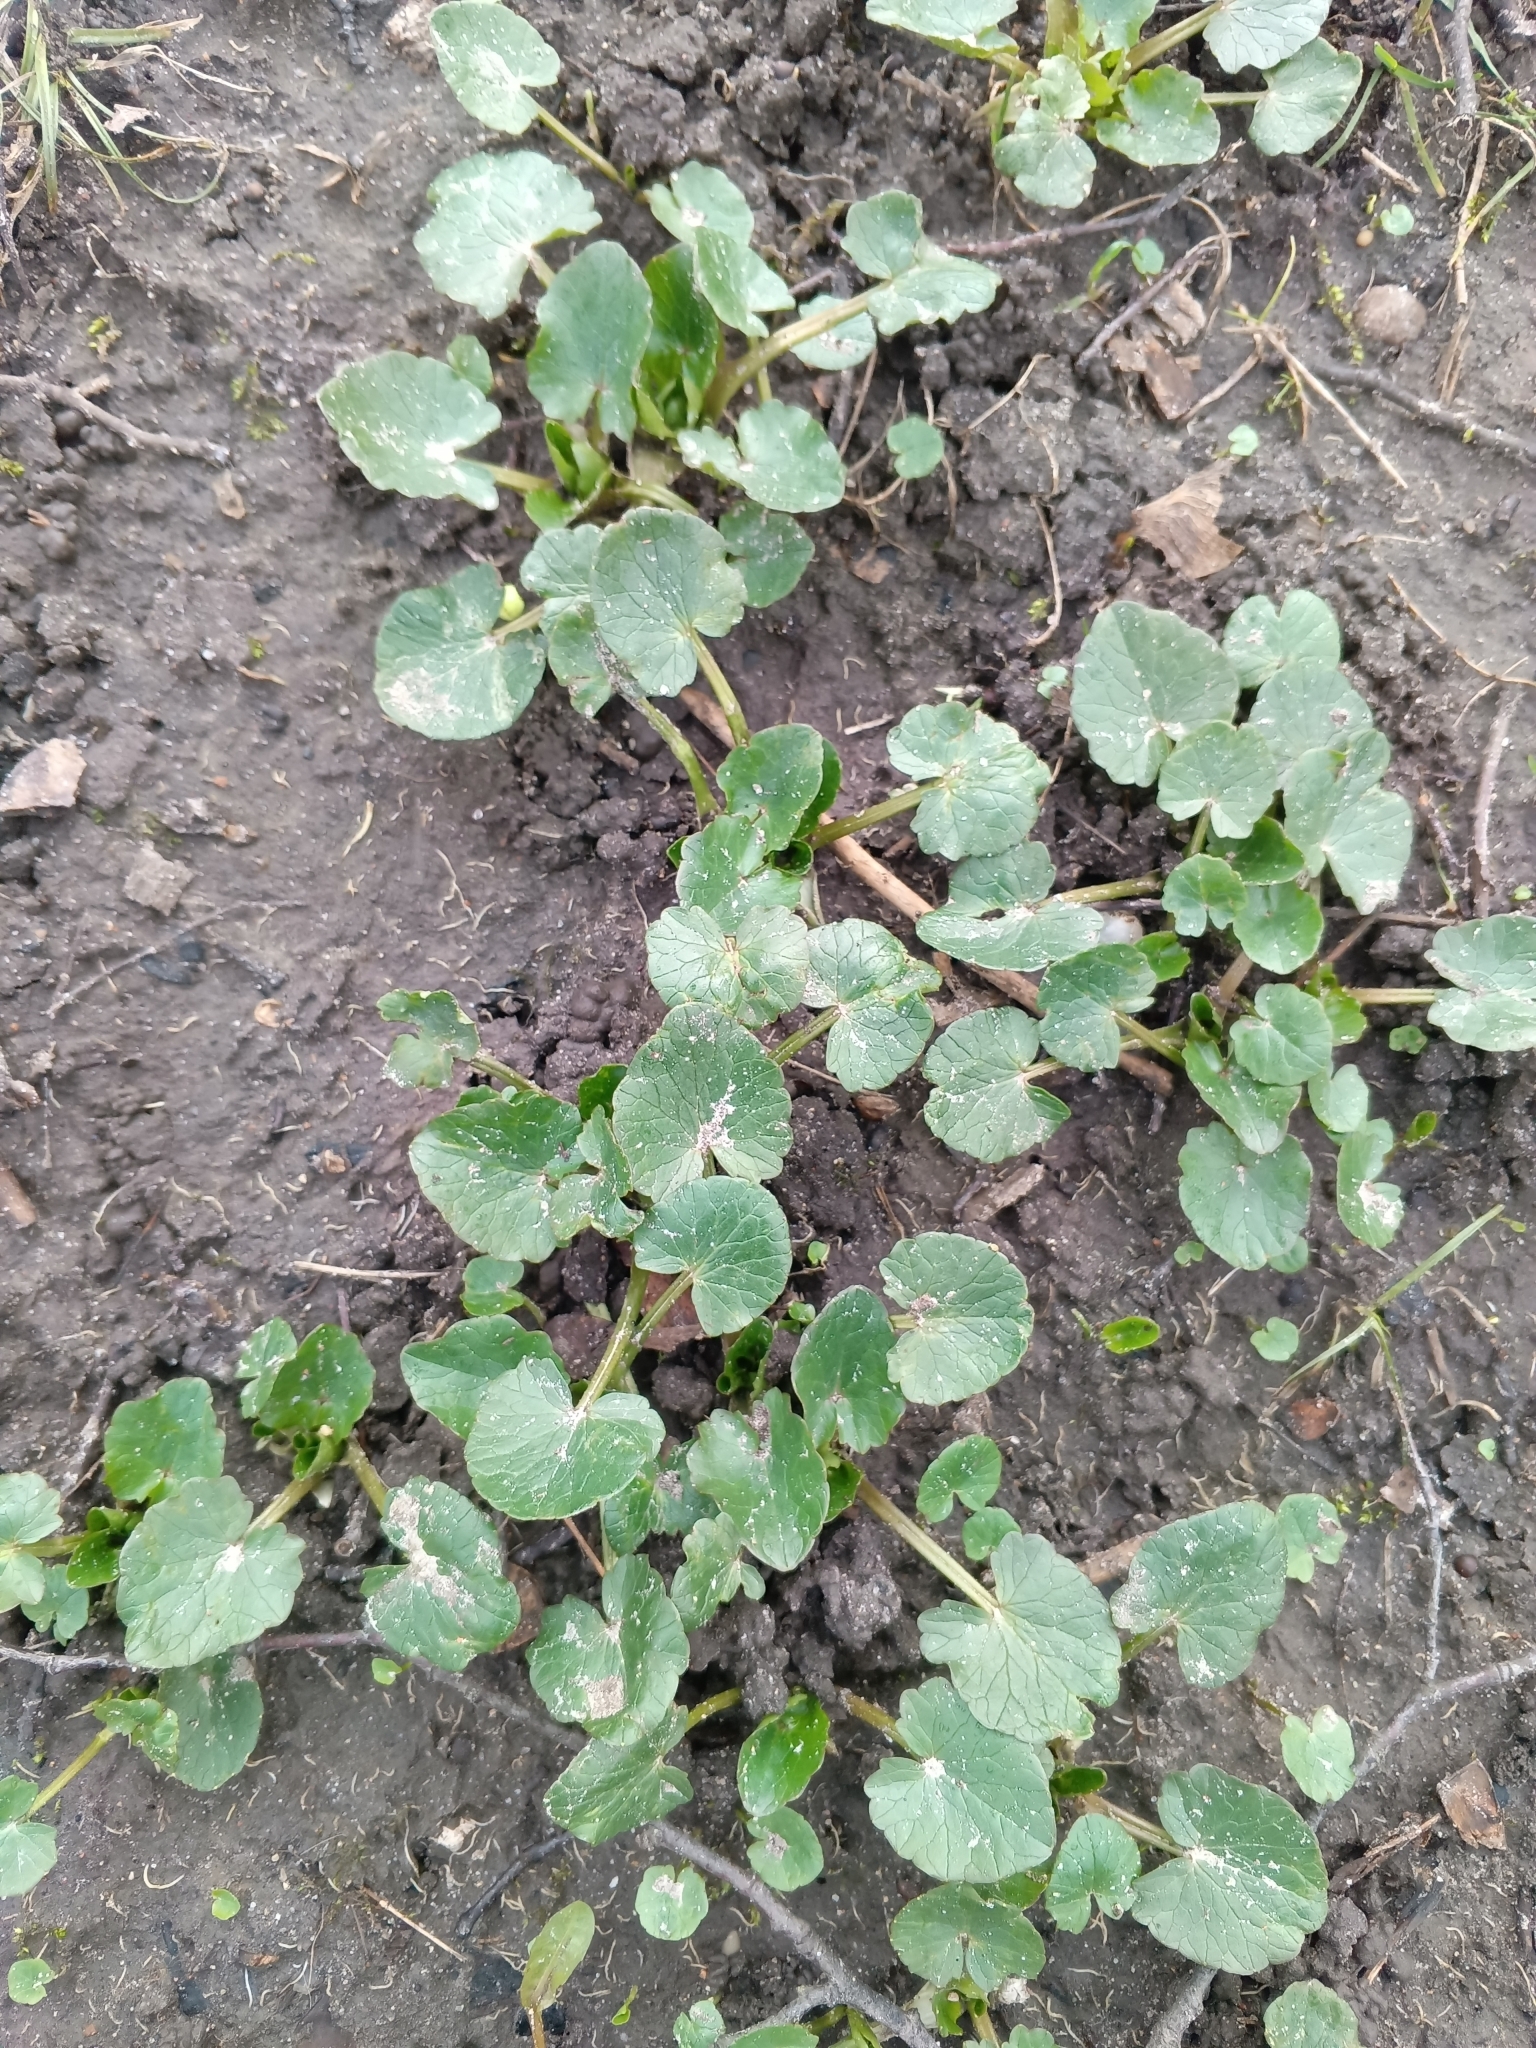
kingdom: Plantae
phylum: Tracheophyta
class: Magnoliopsida
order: Ranunculales
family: Ranunculaceae
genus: Ficaria
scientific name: Ficaria verna
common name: Lesser celandine
